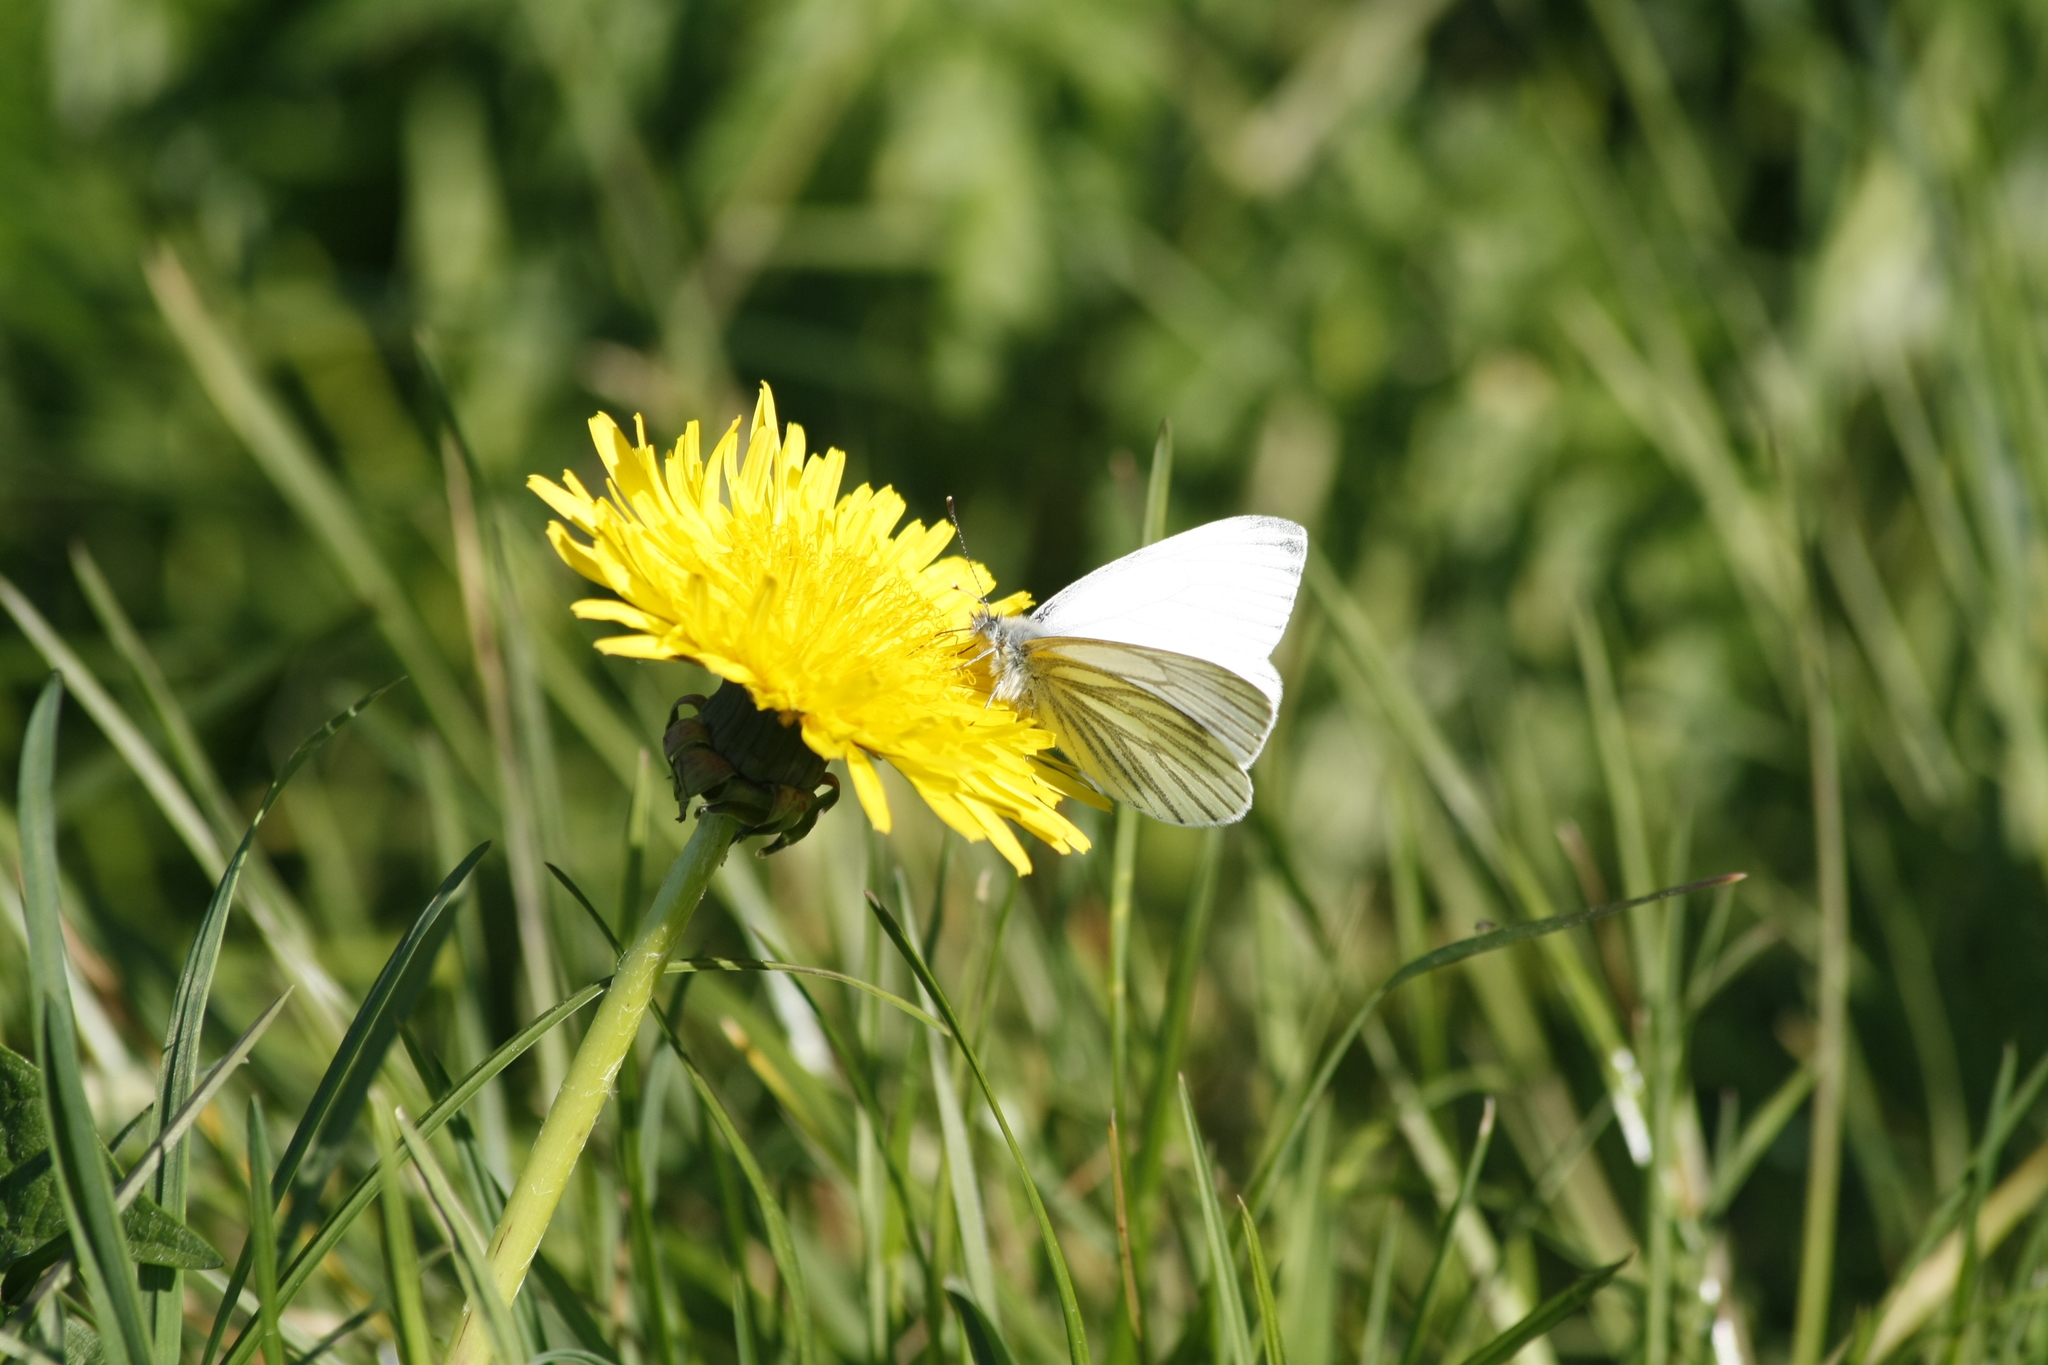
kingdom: Animalia
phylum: Arthropoda
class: Insecta
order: Lepidoptera
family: Pieridae
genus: Pieris
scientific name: Pieris napi
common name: Green-veined white
